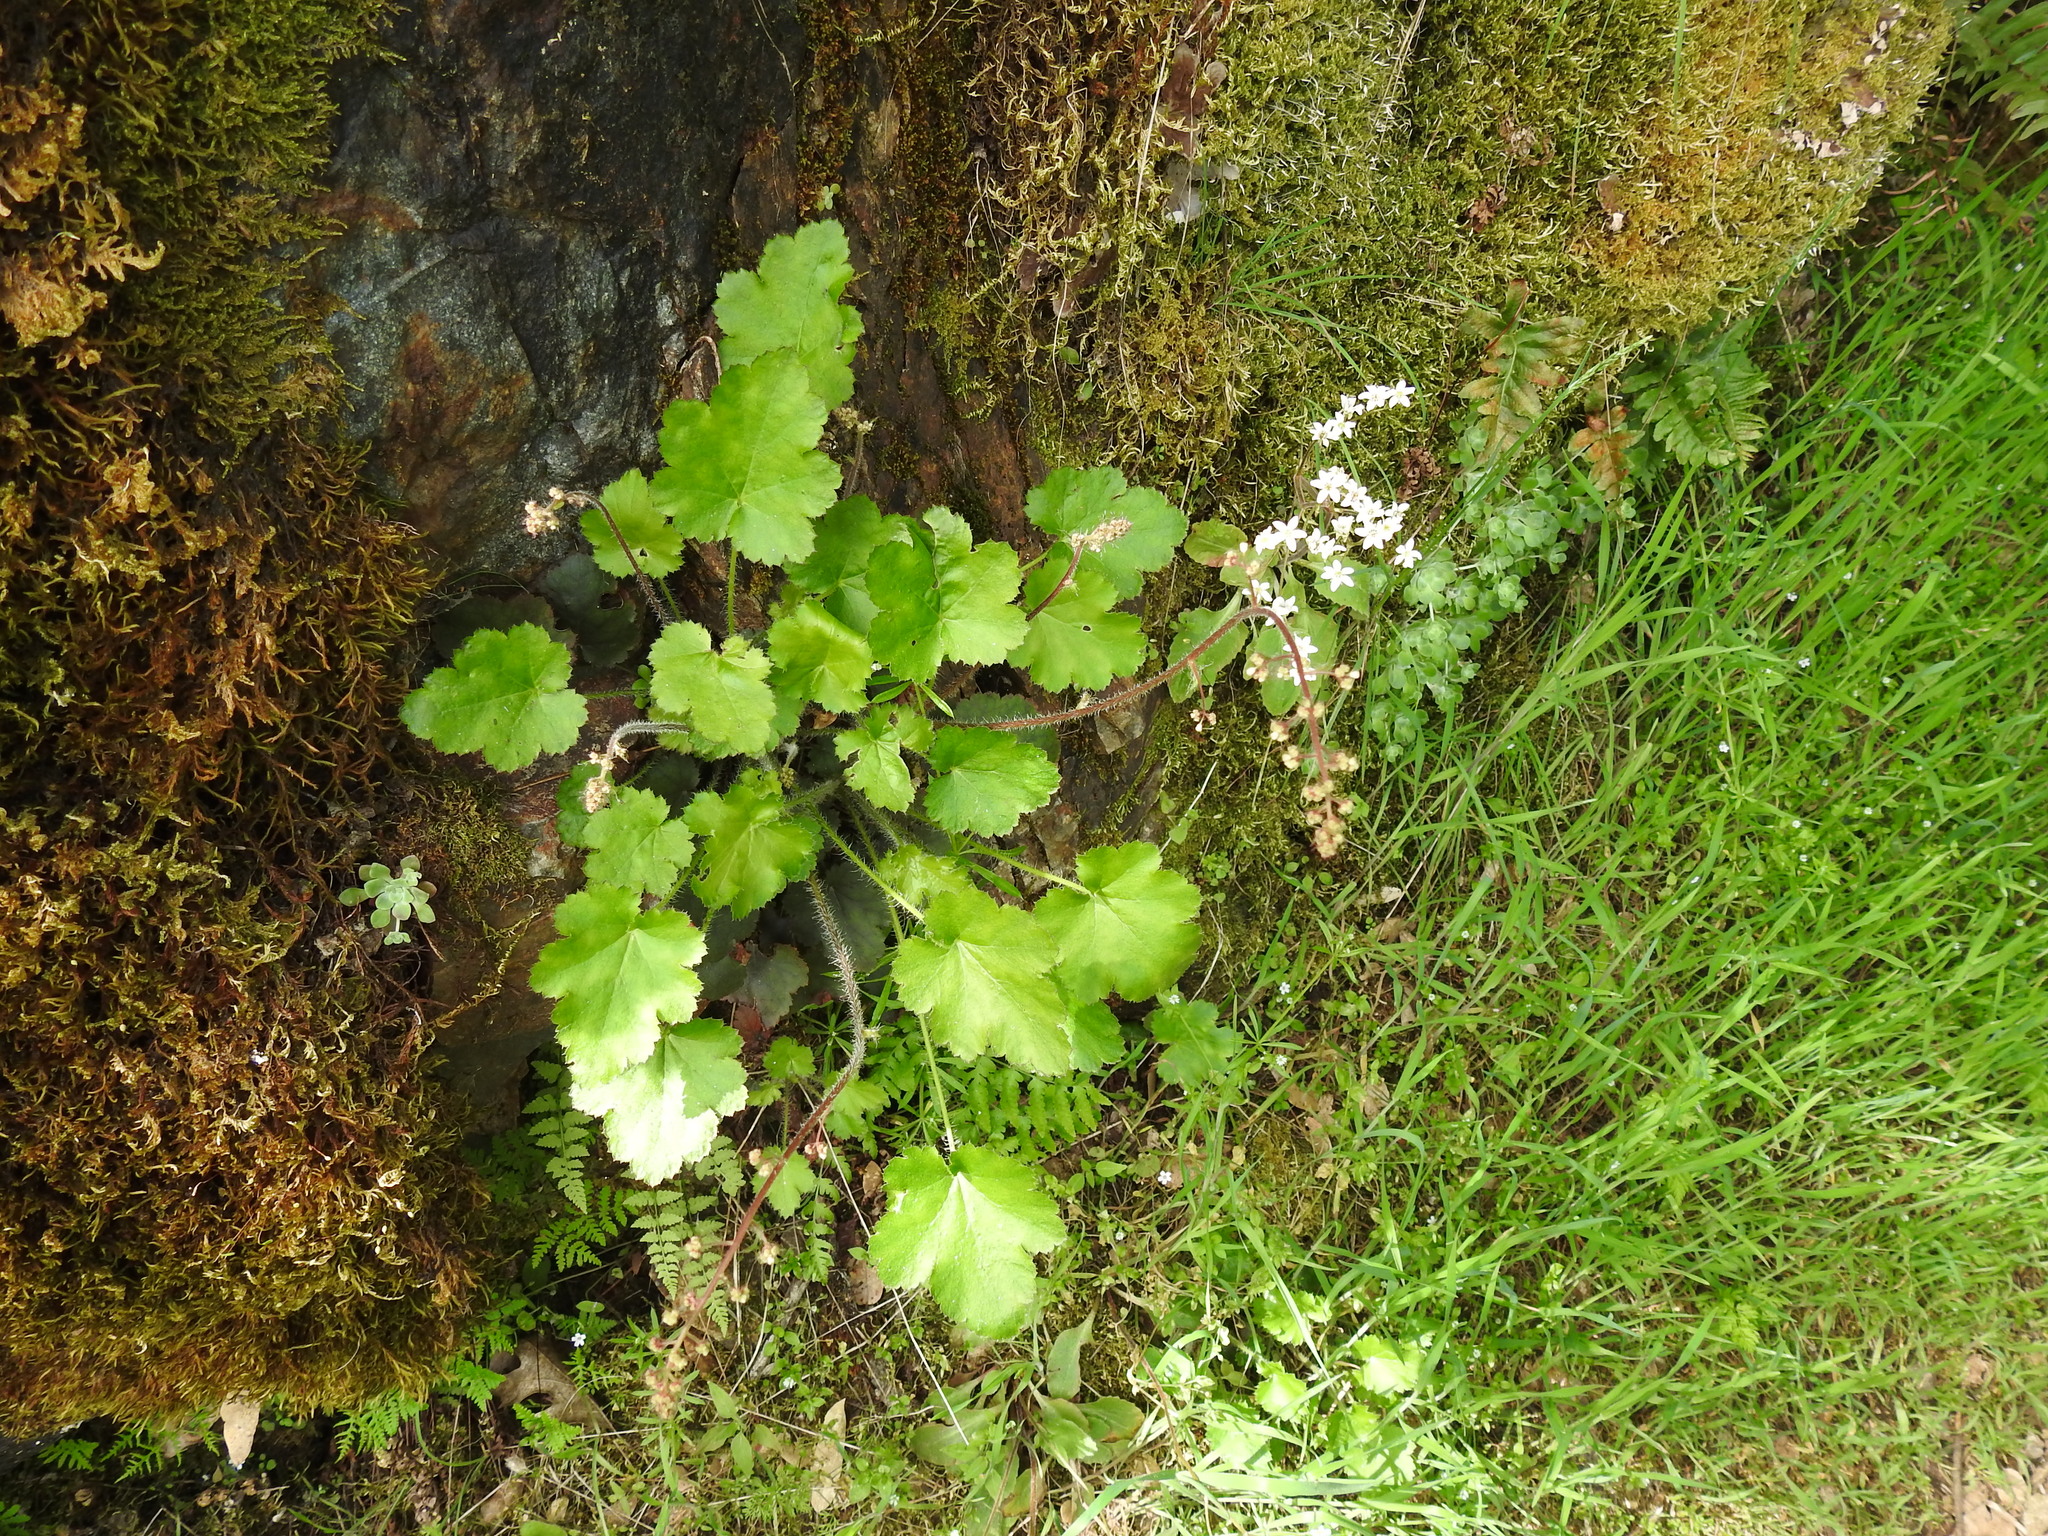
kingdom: Plantae
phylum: Tracheophyta
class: Magnoliopsida
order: Saxifragales
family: Saxifragaceae
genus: Heuchera
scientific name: Heuchera micrantha
